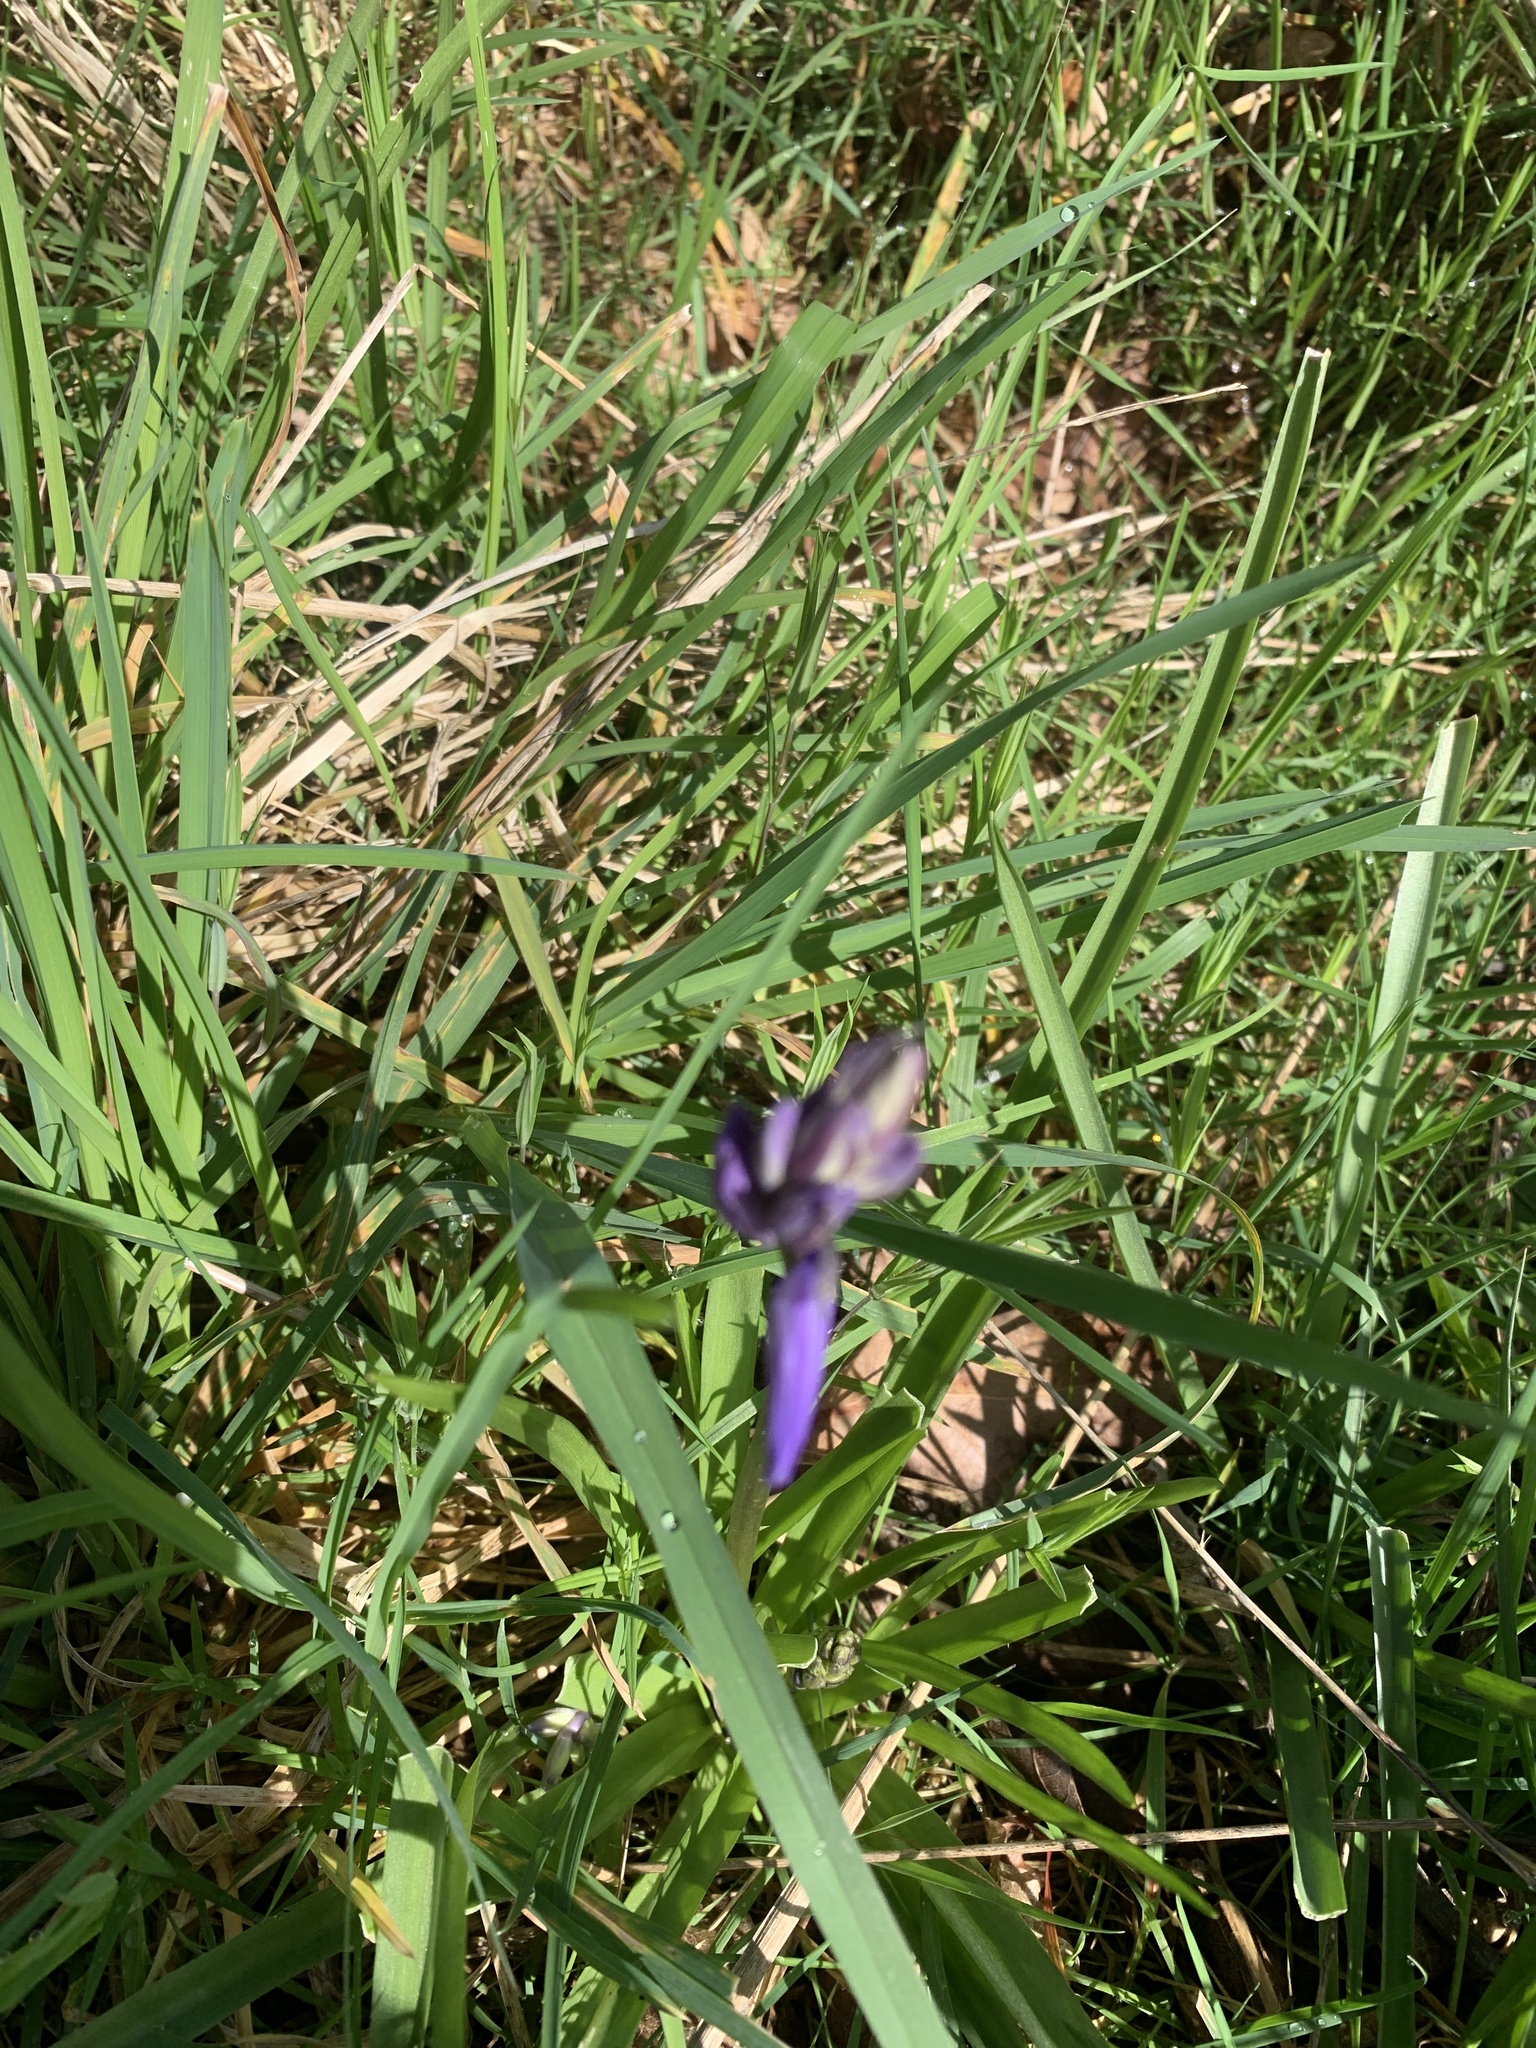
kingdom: Plantae
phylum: Tracheophyta
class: Liliopsida
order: Asparagales
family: Asparagaceae
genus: Hyacinthoides
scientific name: Hyacinthoides non-scripta
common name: Bluebell
